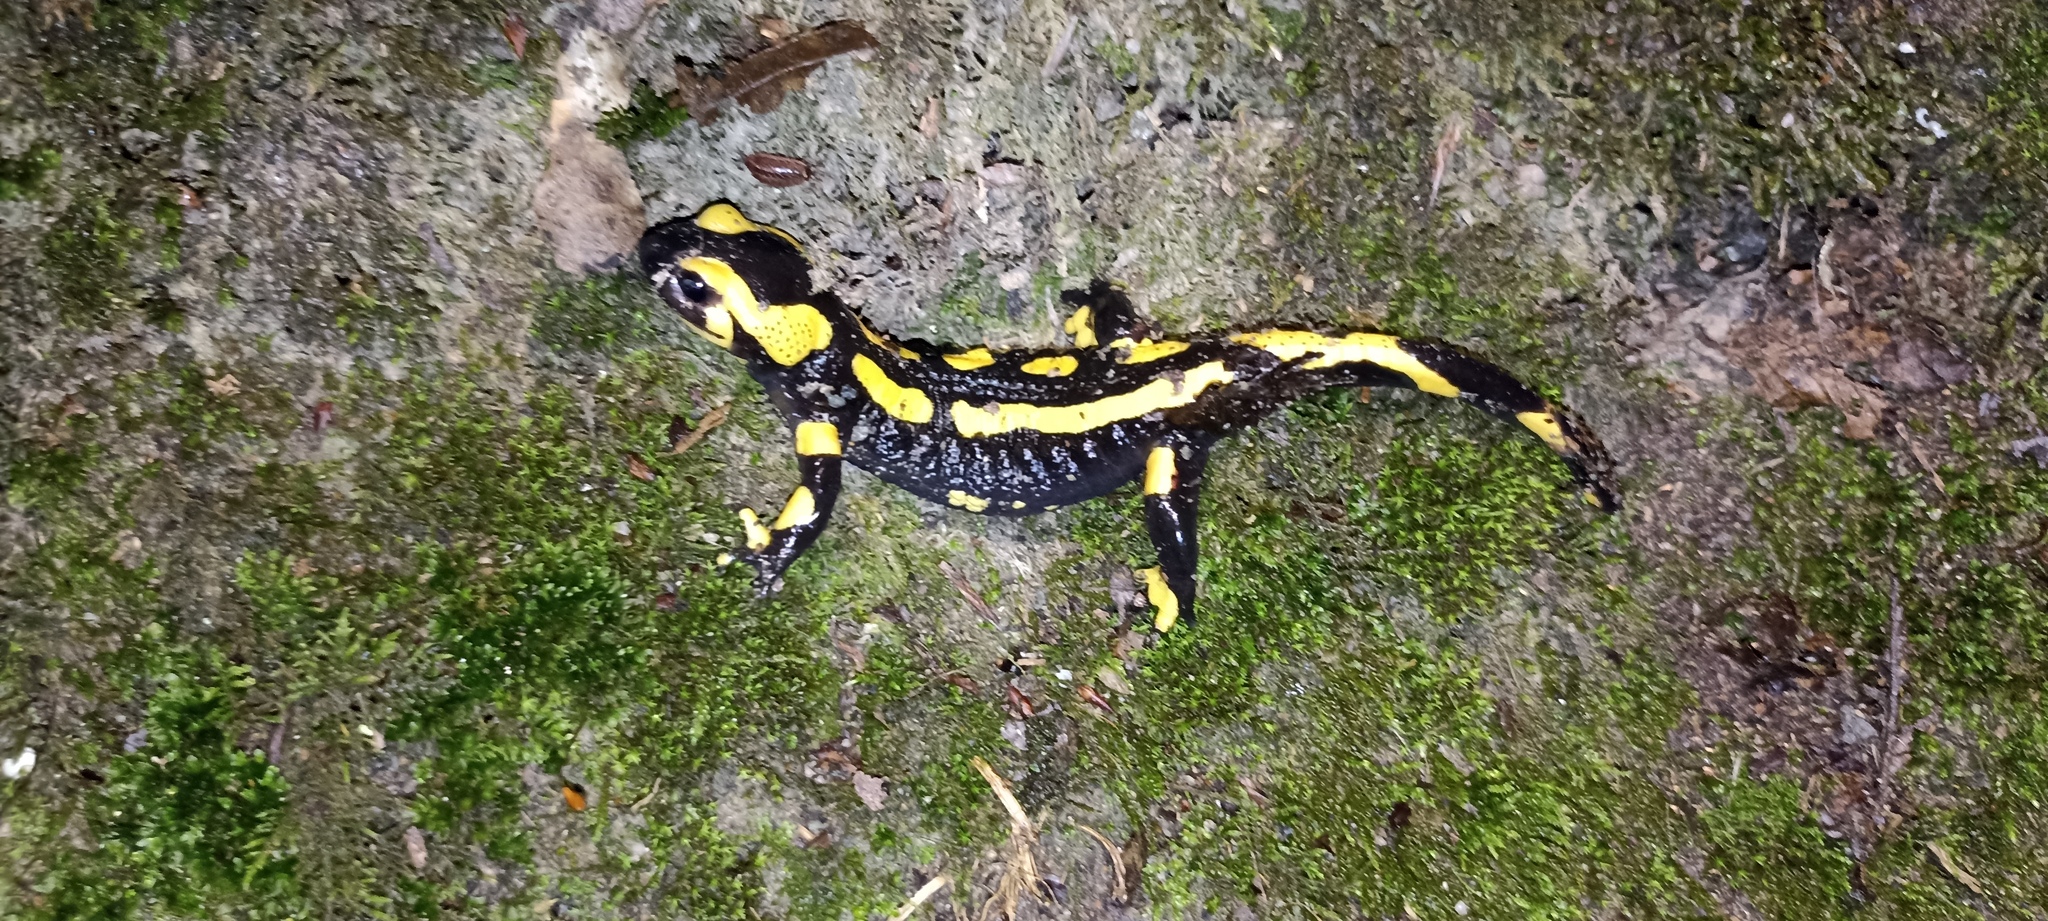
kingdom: Animalia
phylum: Chordata
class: Amphibia
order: Caudata
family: Salamandridae
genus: Salamandra
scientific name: Salamandra salamandra
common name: Fire salamander
